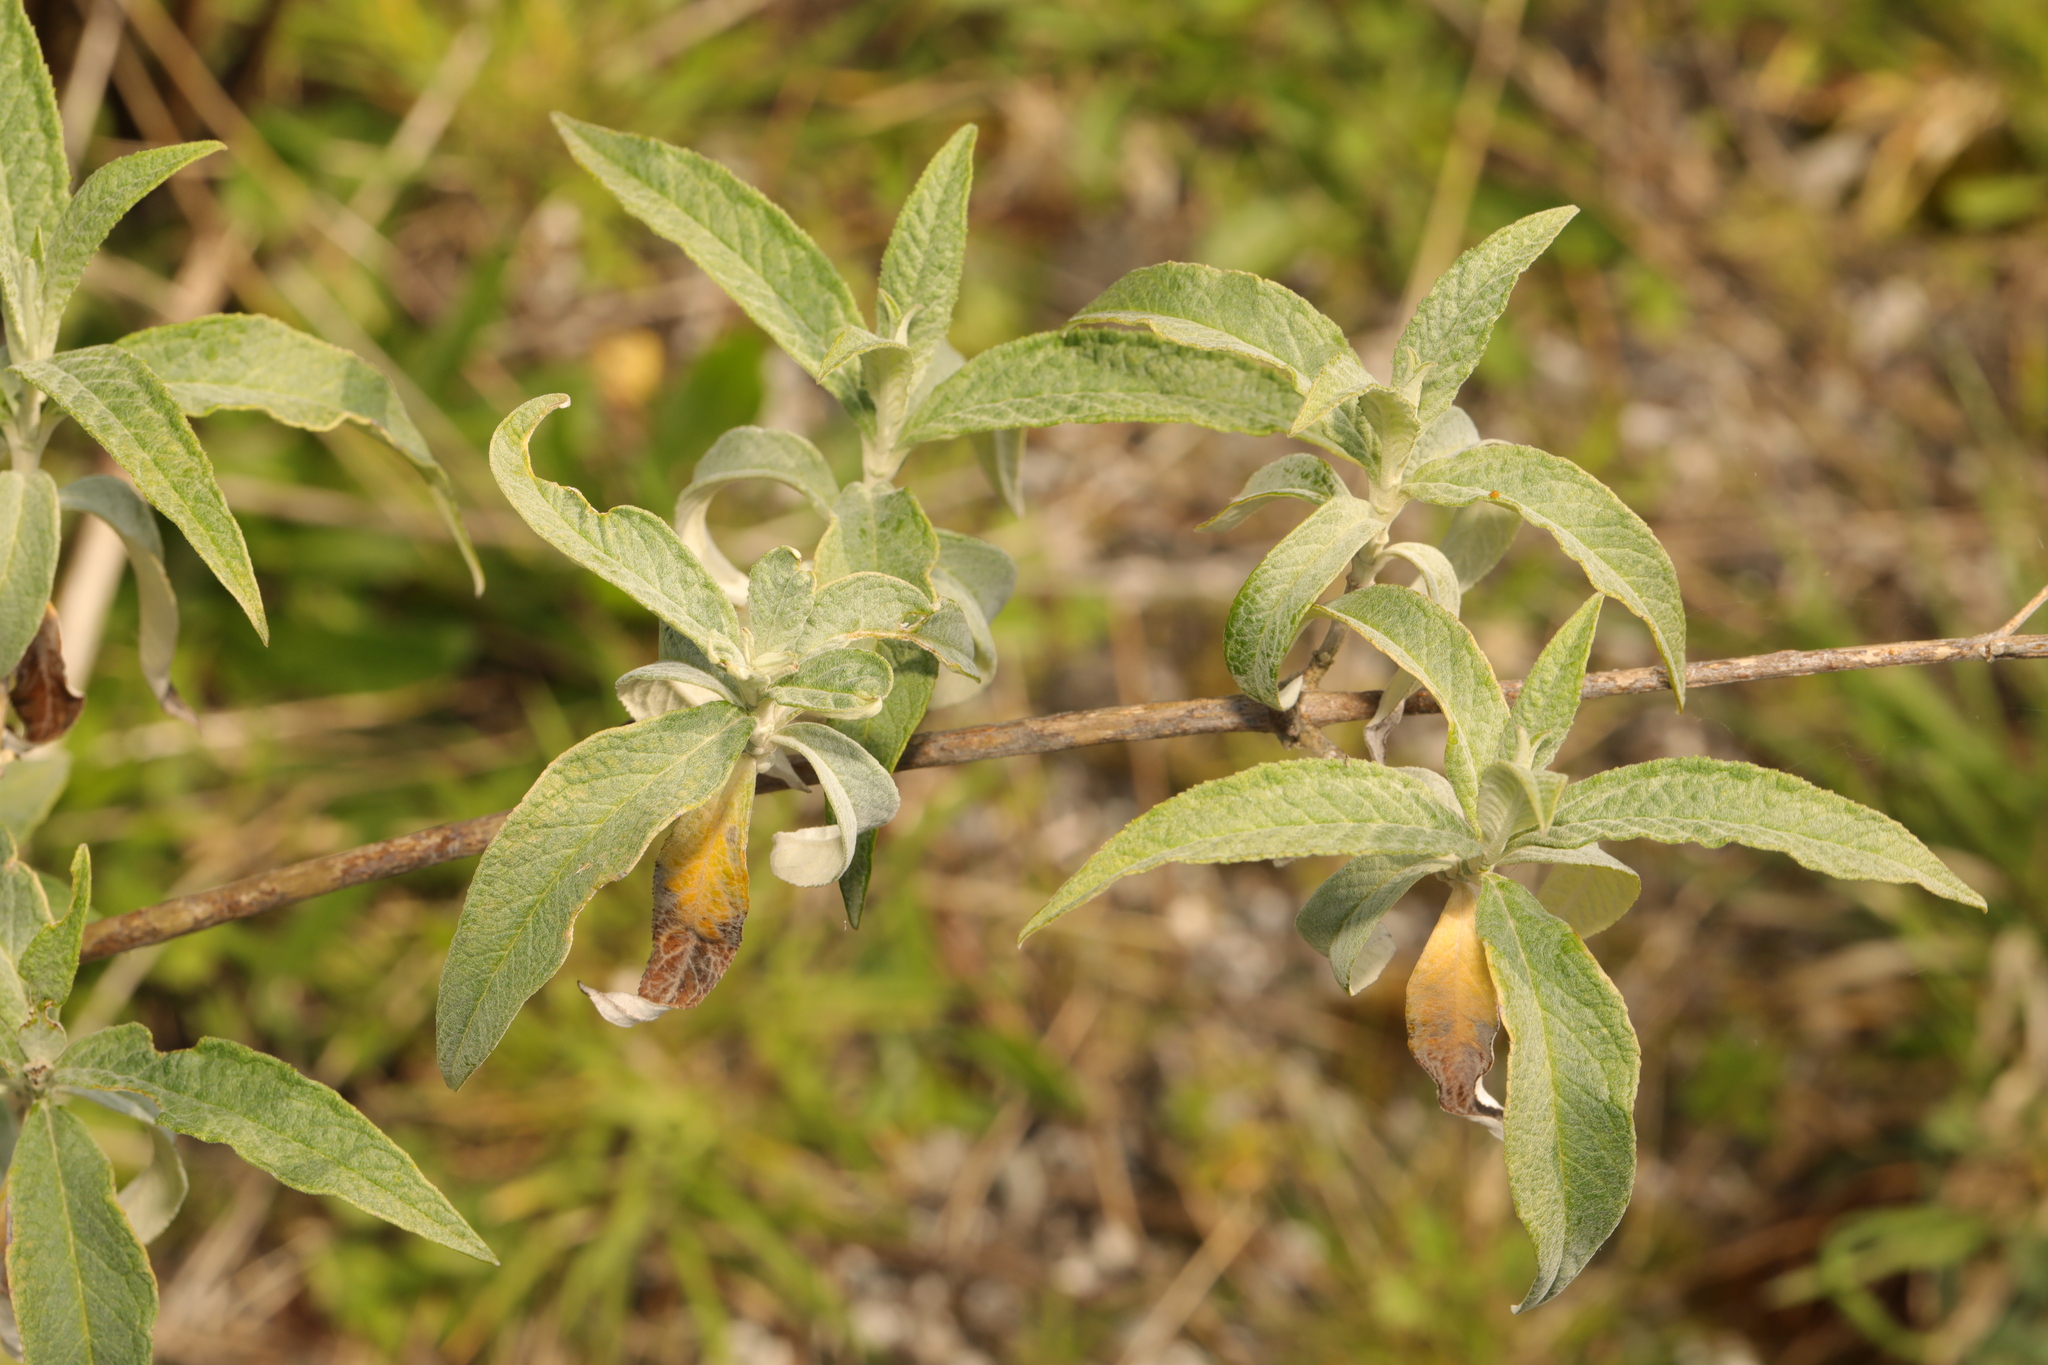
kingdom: Plantae
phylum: Tracheophyta
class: Magnoliopsida
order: Lamiales
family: Scrophulariaceae
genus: Buddleja
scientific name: Buddleja davidii
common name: Butterfly-bush
